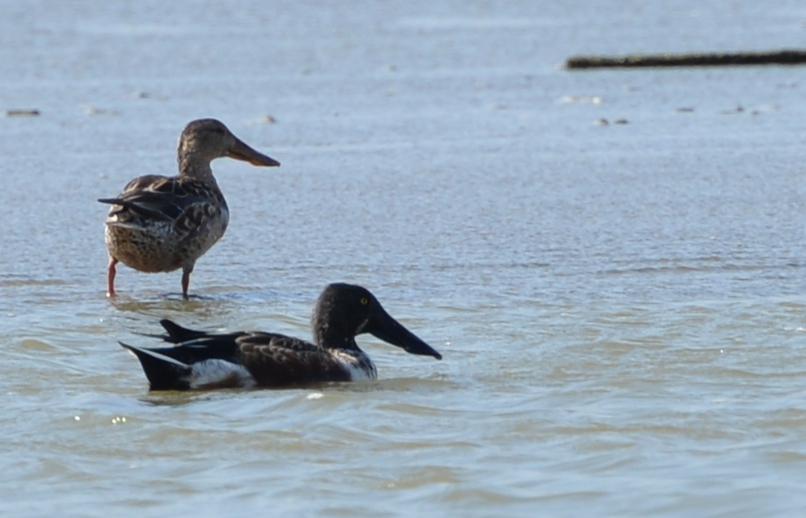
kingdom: Animalia
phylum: Chordata
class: Aves
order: Anseriformes
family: Anatidae
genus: Spatula
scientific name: Spatula clypeata
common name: Northern shoveler
